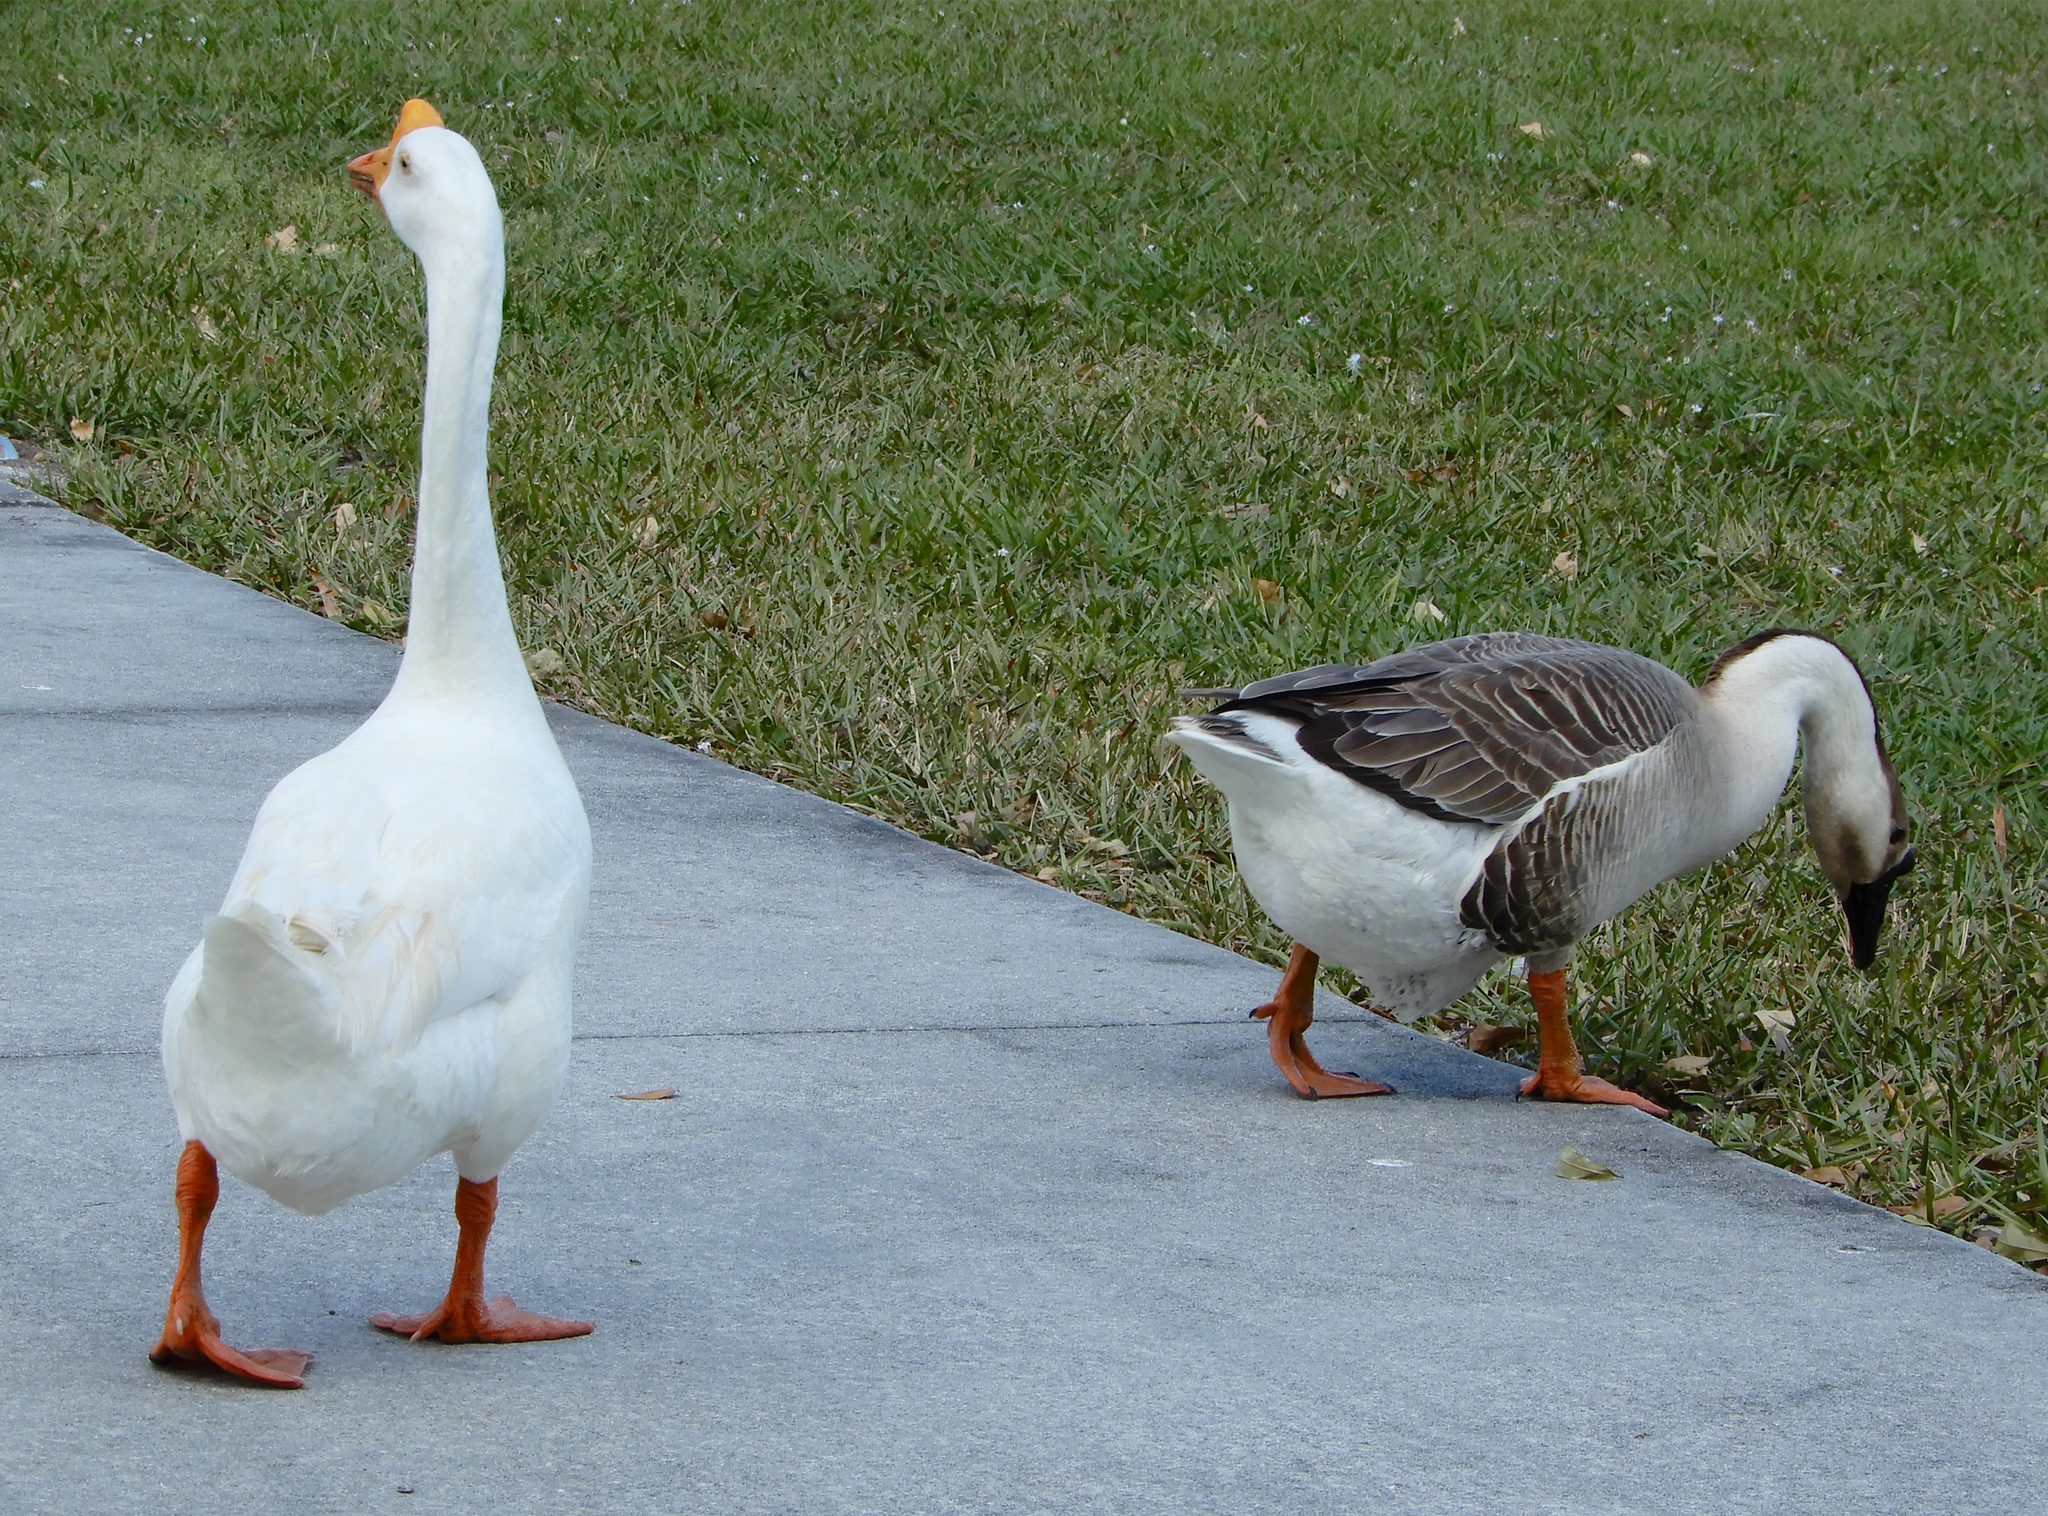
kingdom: Animalia
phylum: Chordata
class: Aves
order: Anseriformes
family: Anatidae
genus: Anser
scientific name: Anser cygnoides
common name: Swan goose
